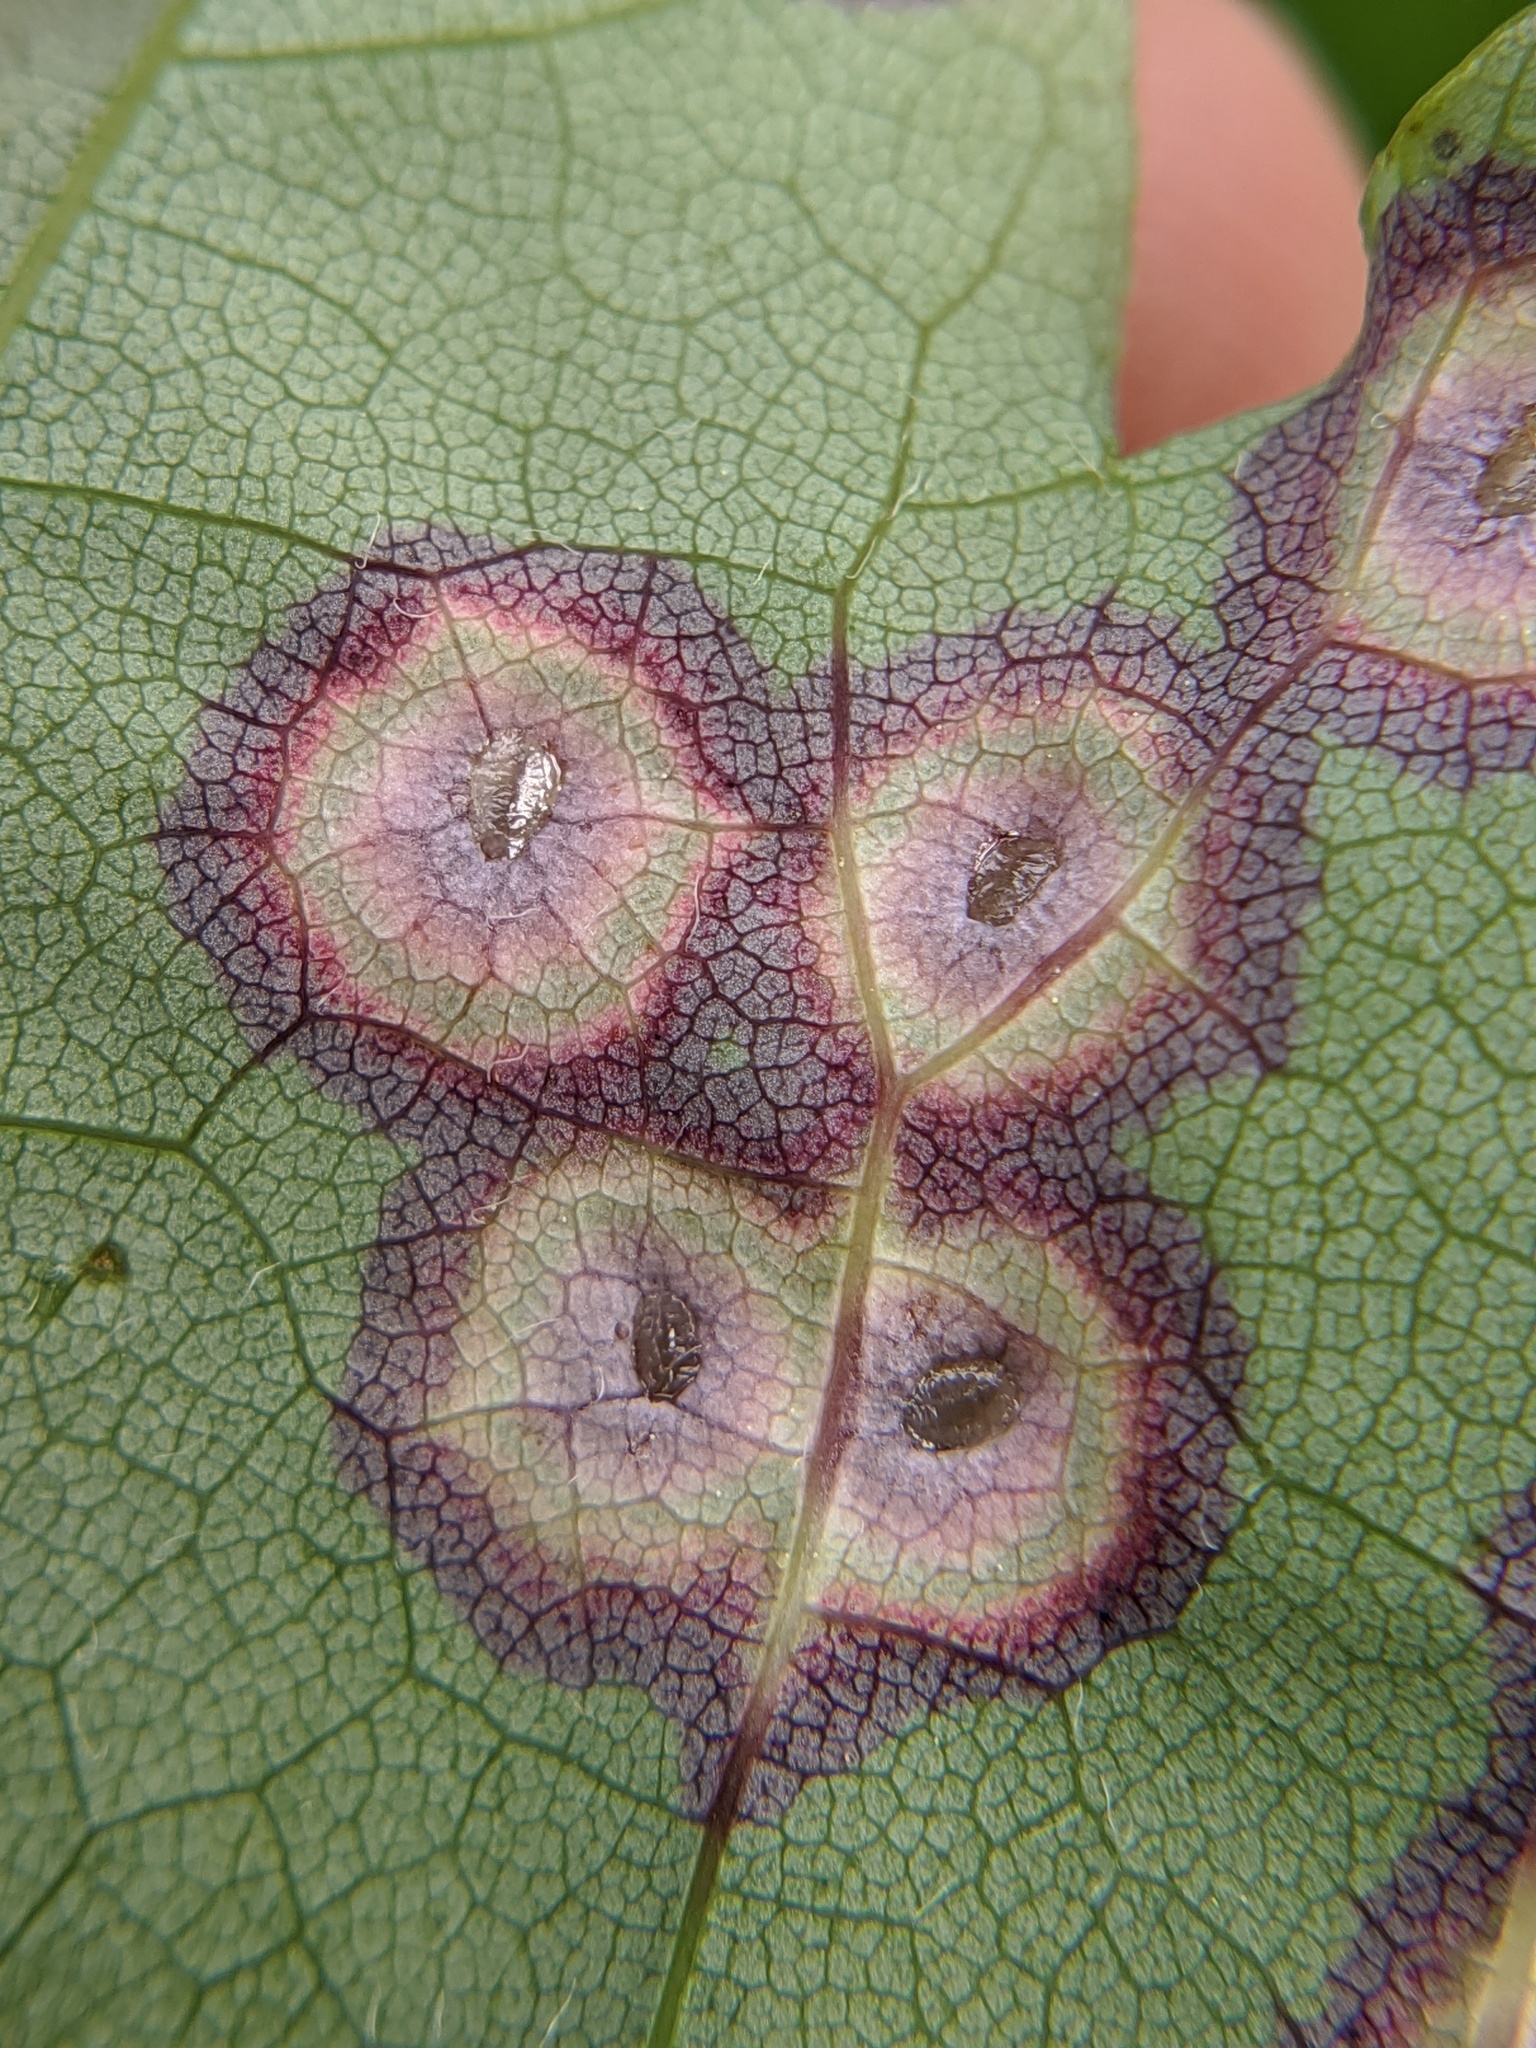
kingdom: Animalia
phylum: Arthropoda
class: Insecta
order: Diptera
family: Cecidomyiidae
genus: Acericecis
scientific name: Acericecis ocellaris
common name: Ocellate gall midge
